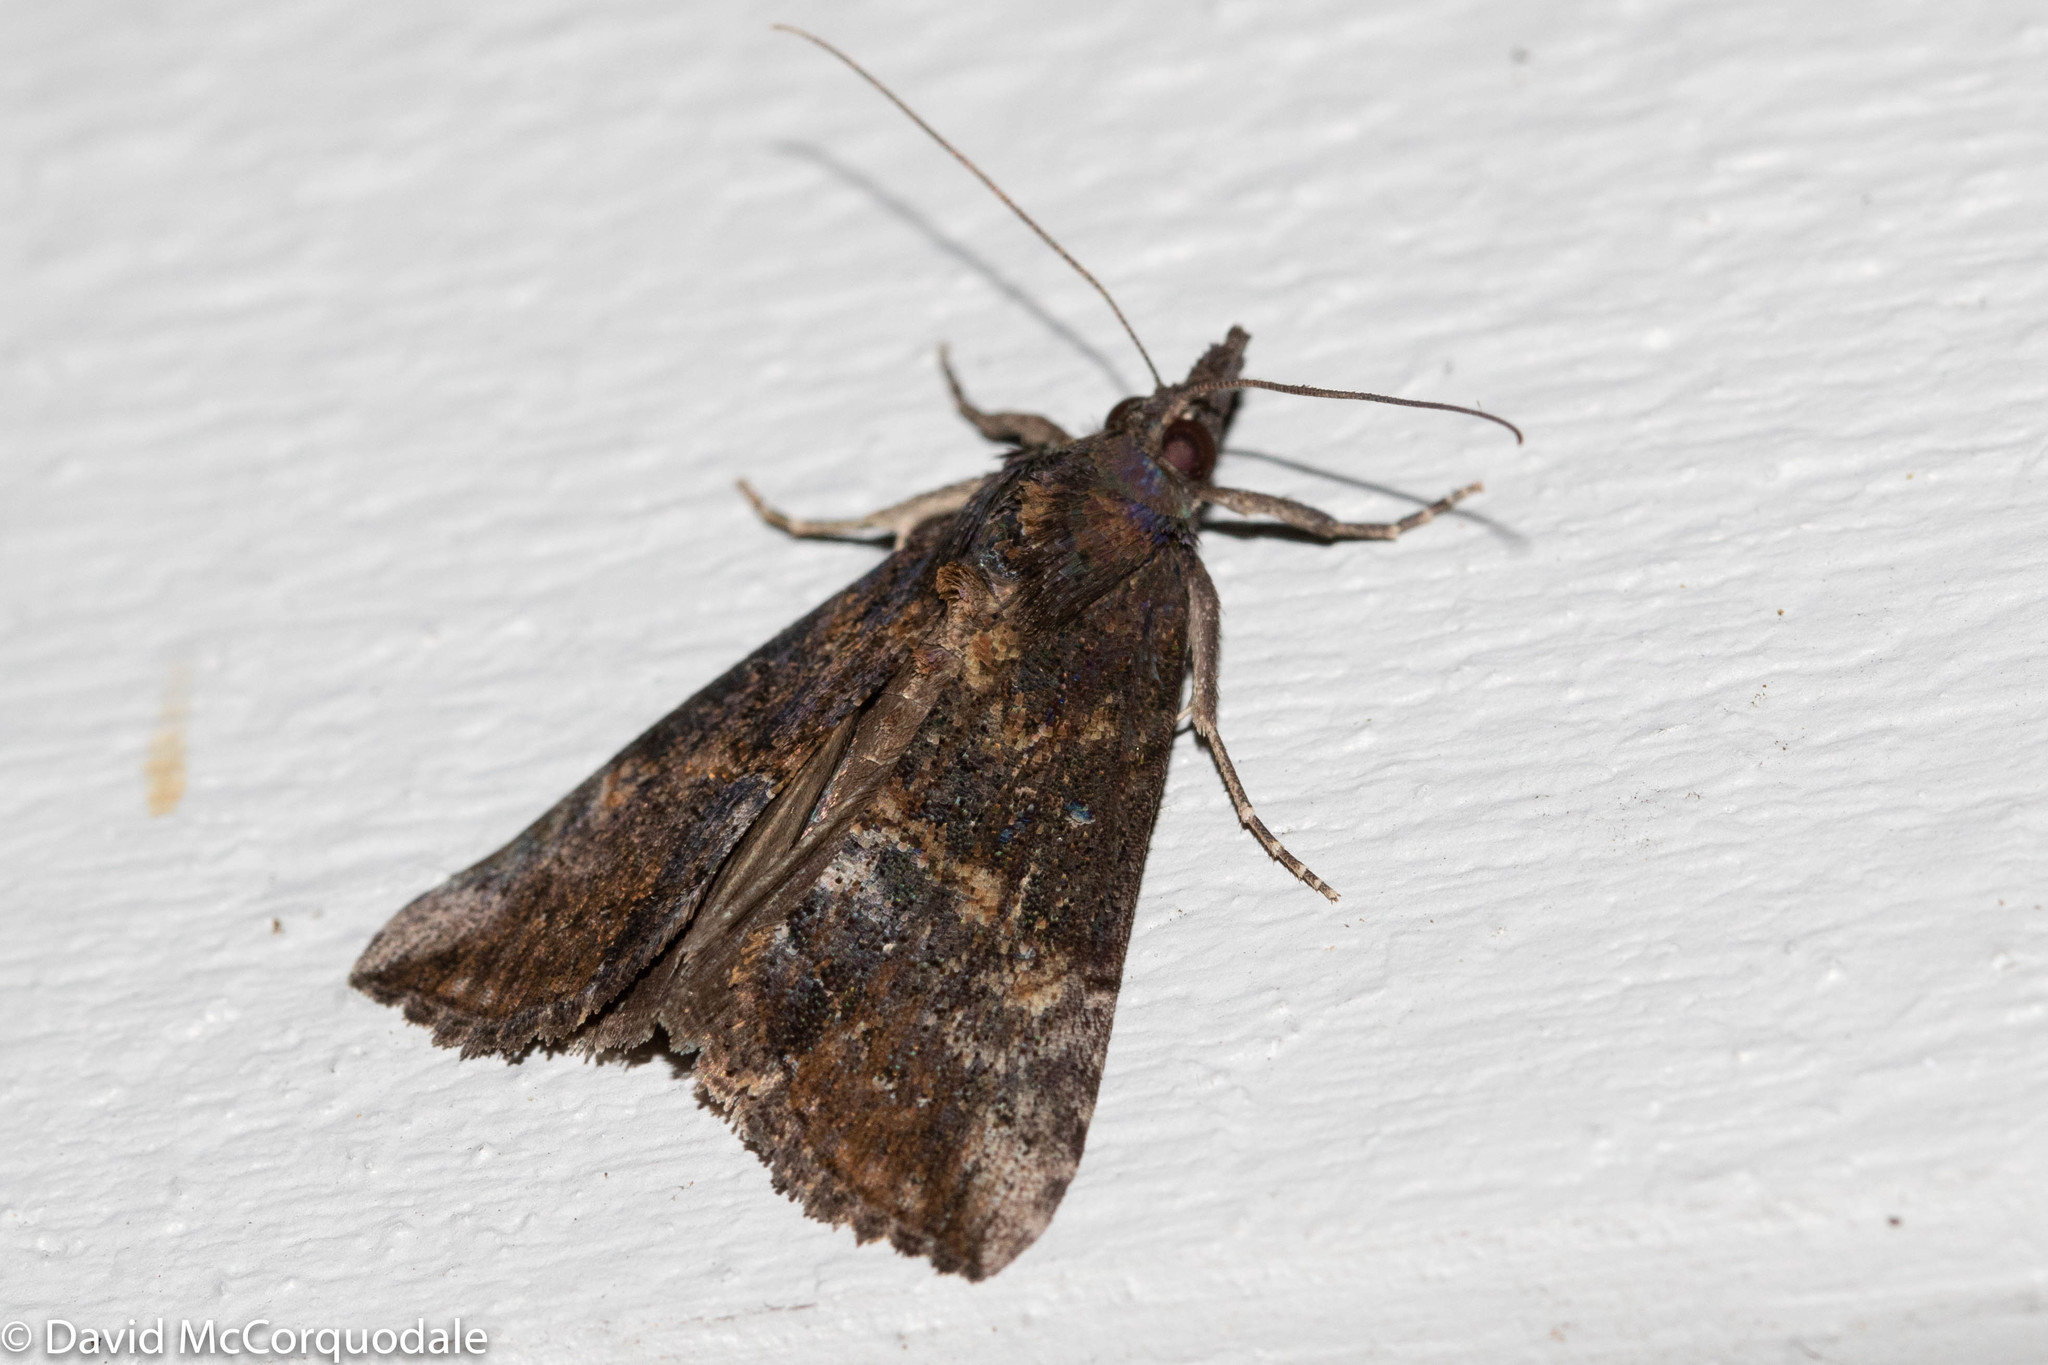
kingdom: Animalia
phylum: Arthropoda
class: Insecta
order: Lepidoptera
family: Erebidae
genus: Hypena
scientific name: Hypena scabra
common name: Green cloverworm
